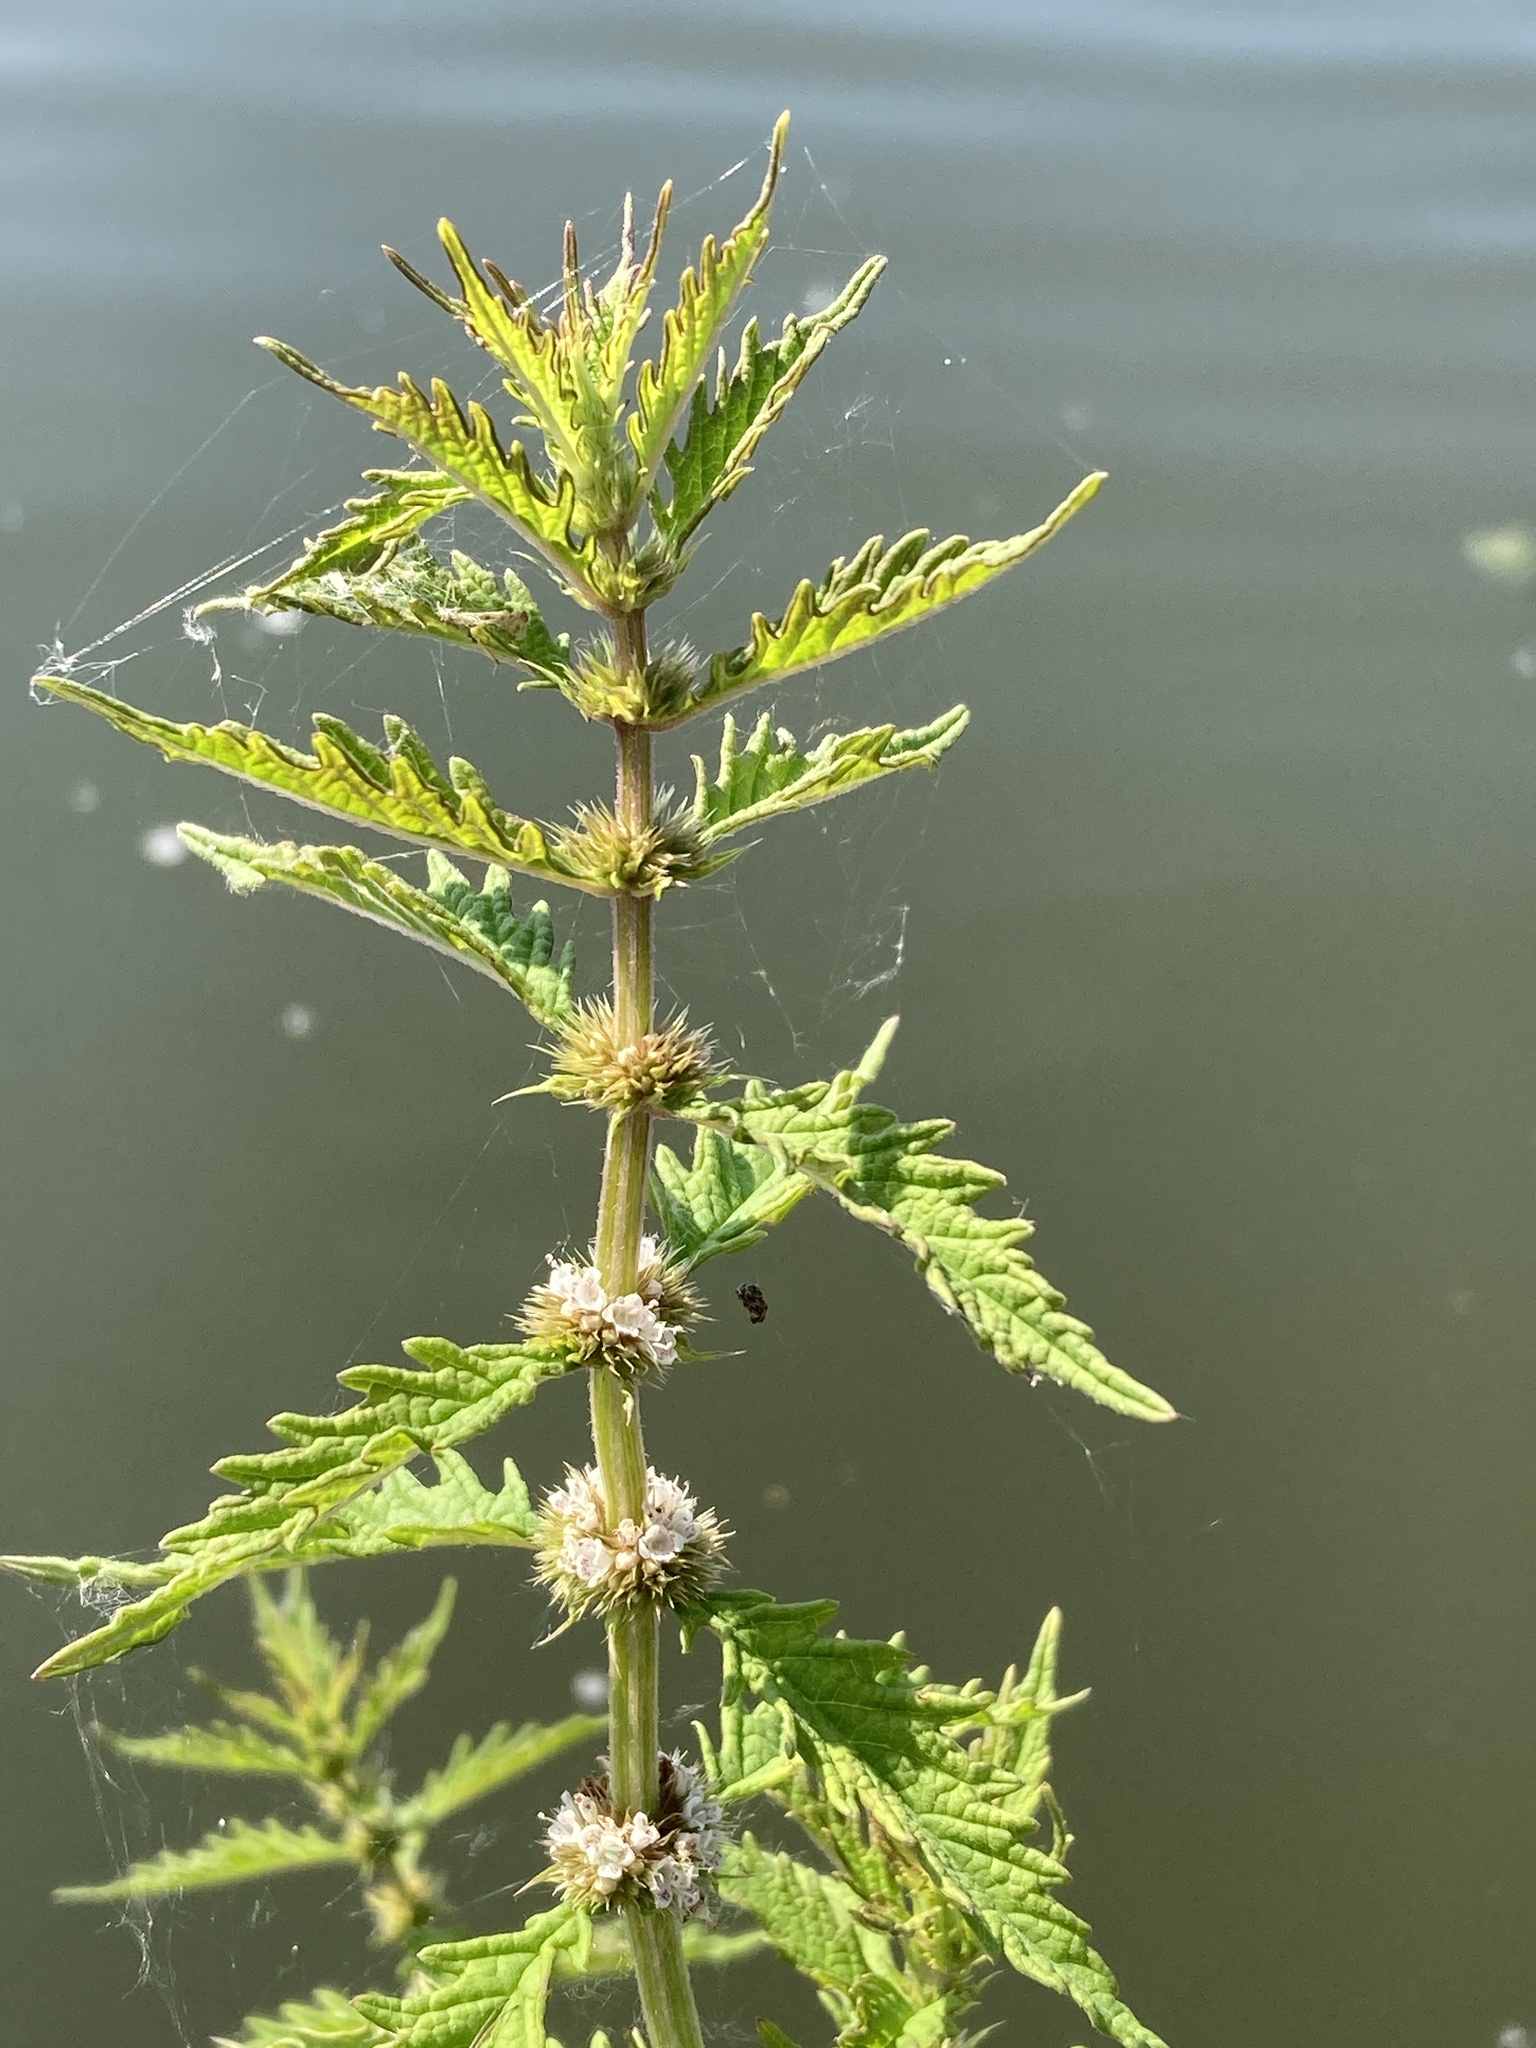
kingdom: Plantae
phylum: Tracheophyta
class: Magnoliopsida
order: Lamiales
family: Lamiaceae
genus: Lycopus
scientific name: Lycopus europaeus
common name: European bugleweed
